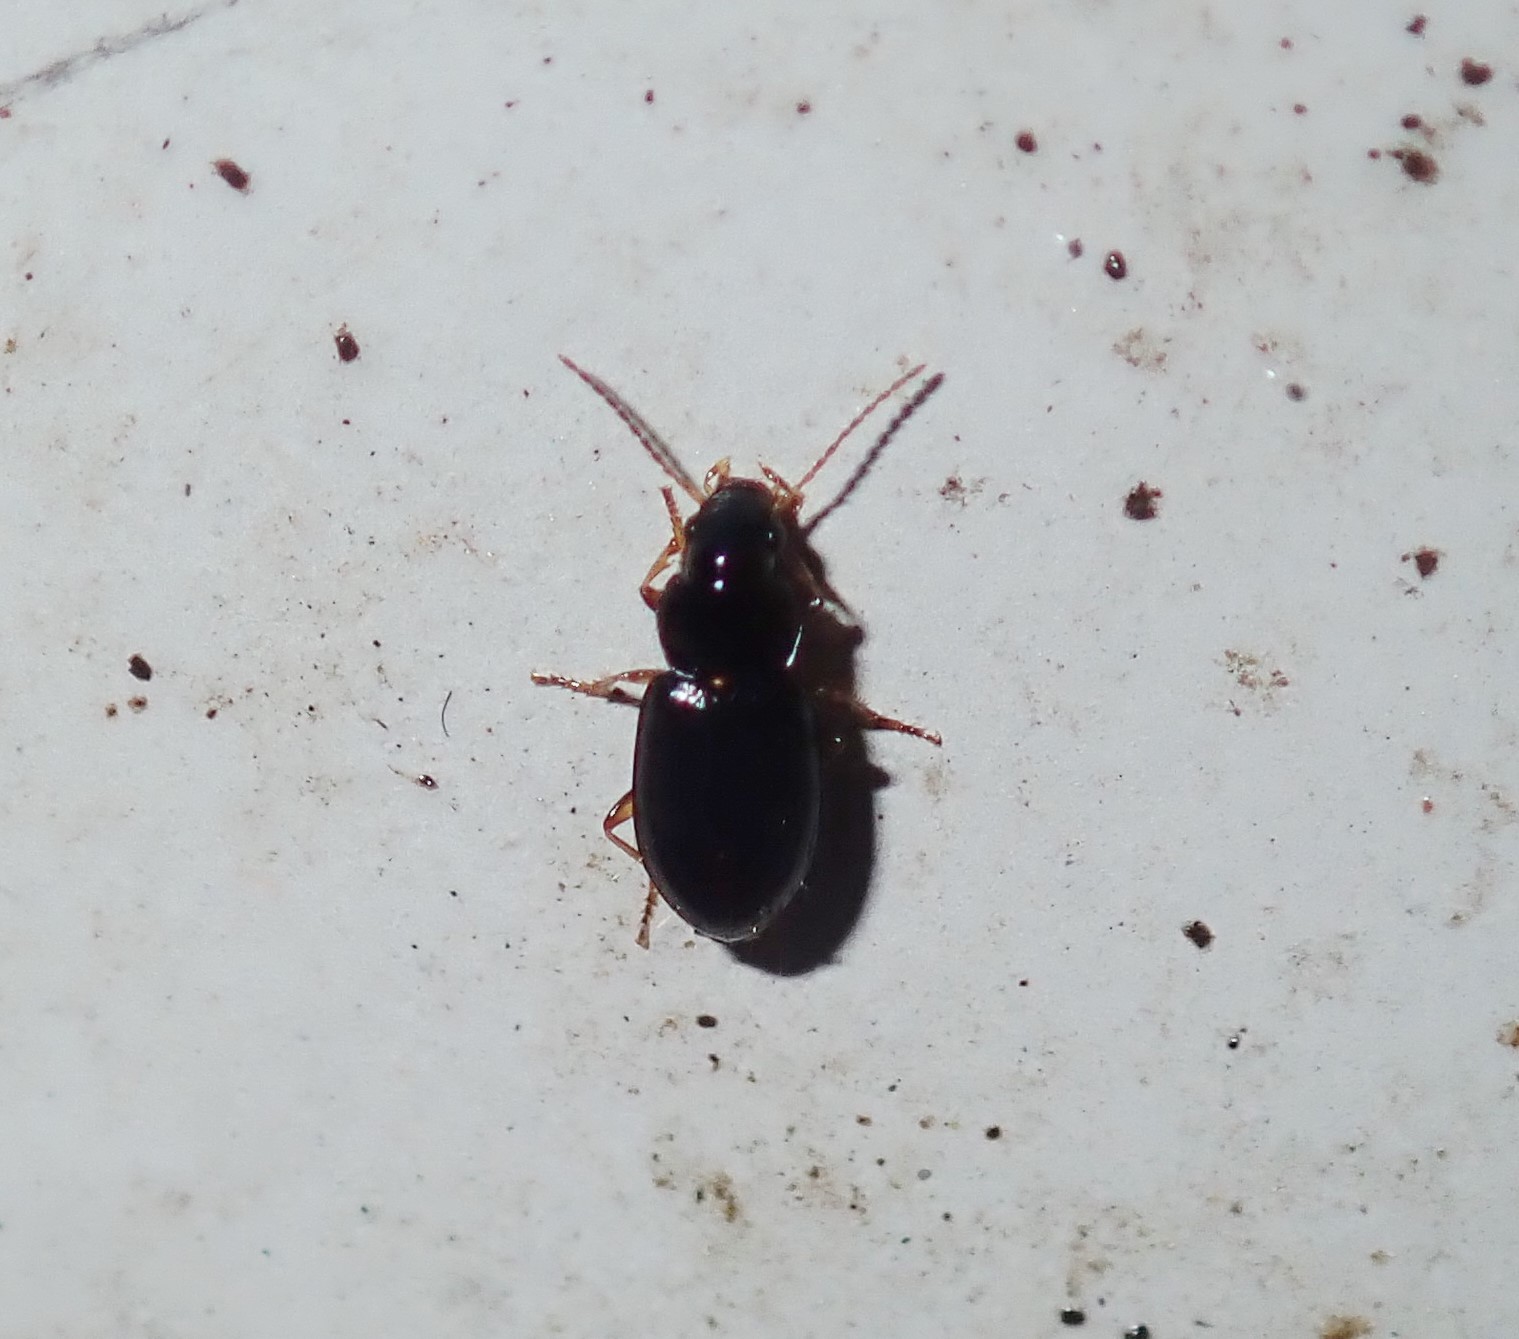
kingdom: Animalia
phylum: Arthropoda
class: Insecta
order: Coleoptera
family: Carabidae
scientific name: Carabidae
